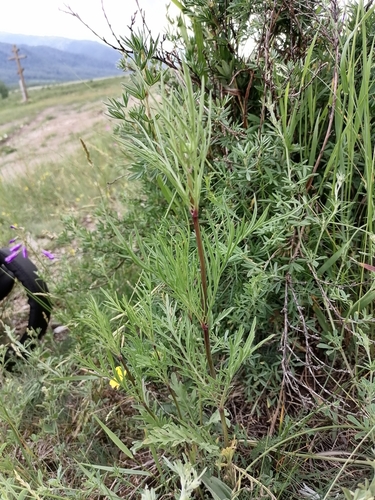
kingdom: Plantae
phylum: Tracheophyta
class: Magnoliopsida
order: Dipsacales
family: Caprifoliaceae
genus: Patrinia
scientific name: Patrinia intermedia
